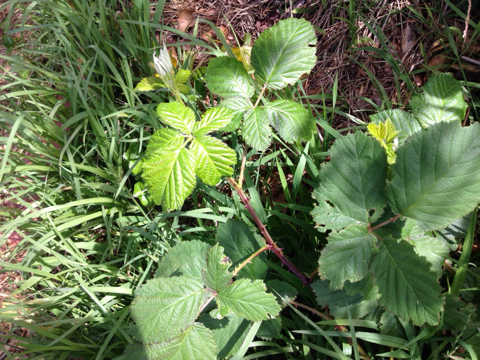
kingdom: Plantae
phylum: Tracheophyta
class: Magnoliopsida
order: Rosales
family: Rosaceae
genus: Rubus
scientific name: Rubus armeniacus
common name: Himalayan blackberry
